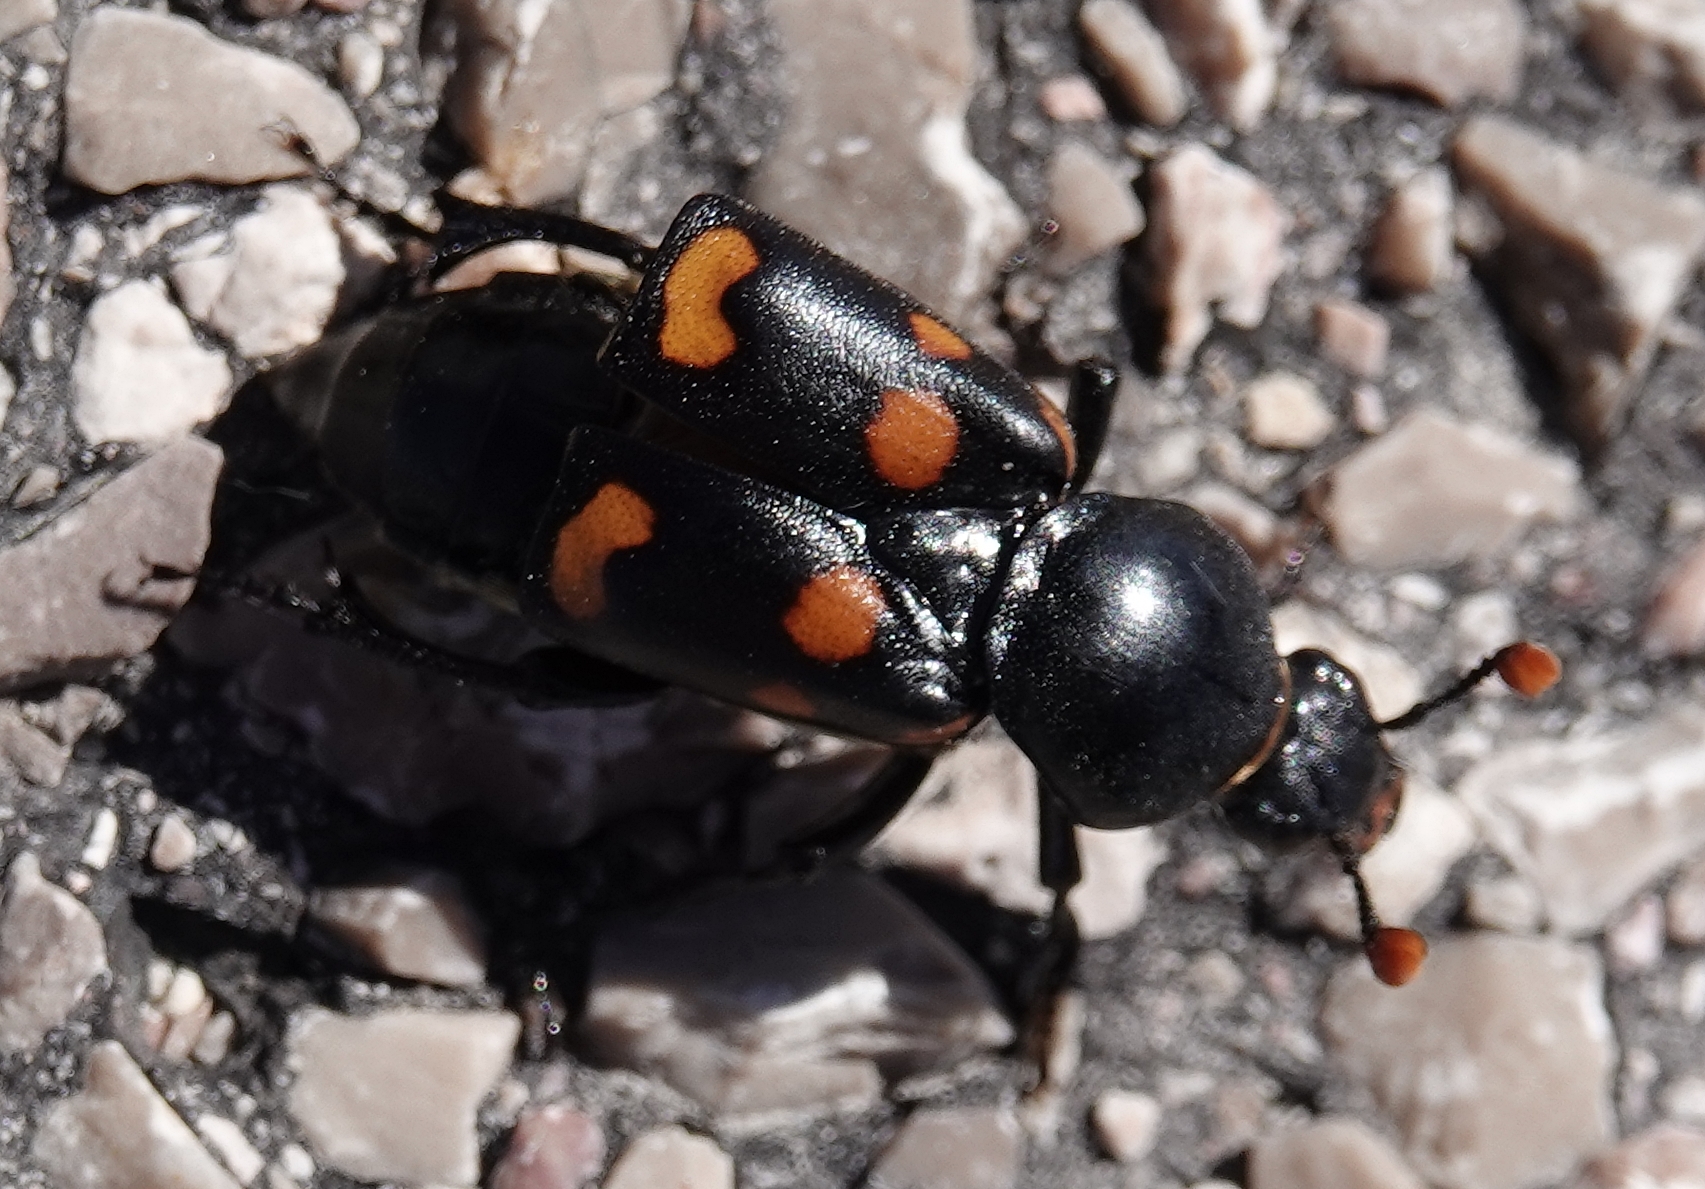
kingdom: Animalia
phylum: Arthropoda
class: Insecta
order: Coleoptera
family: Staphylinidae
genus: Nicrophorus
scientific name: Nicrophorus carolinus
